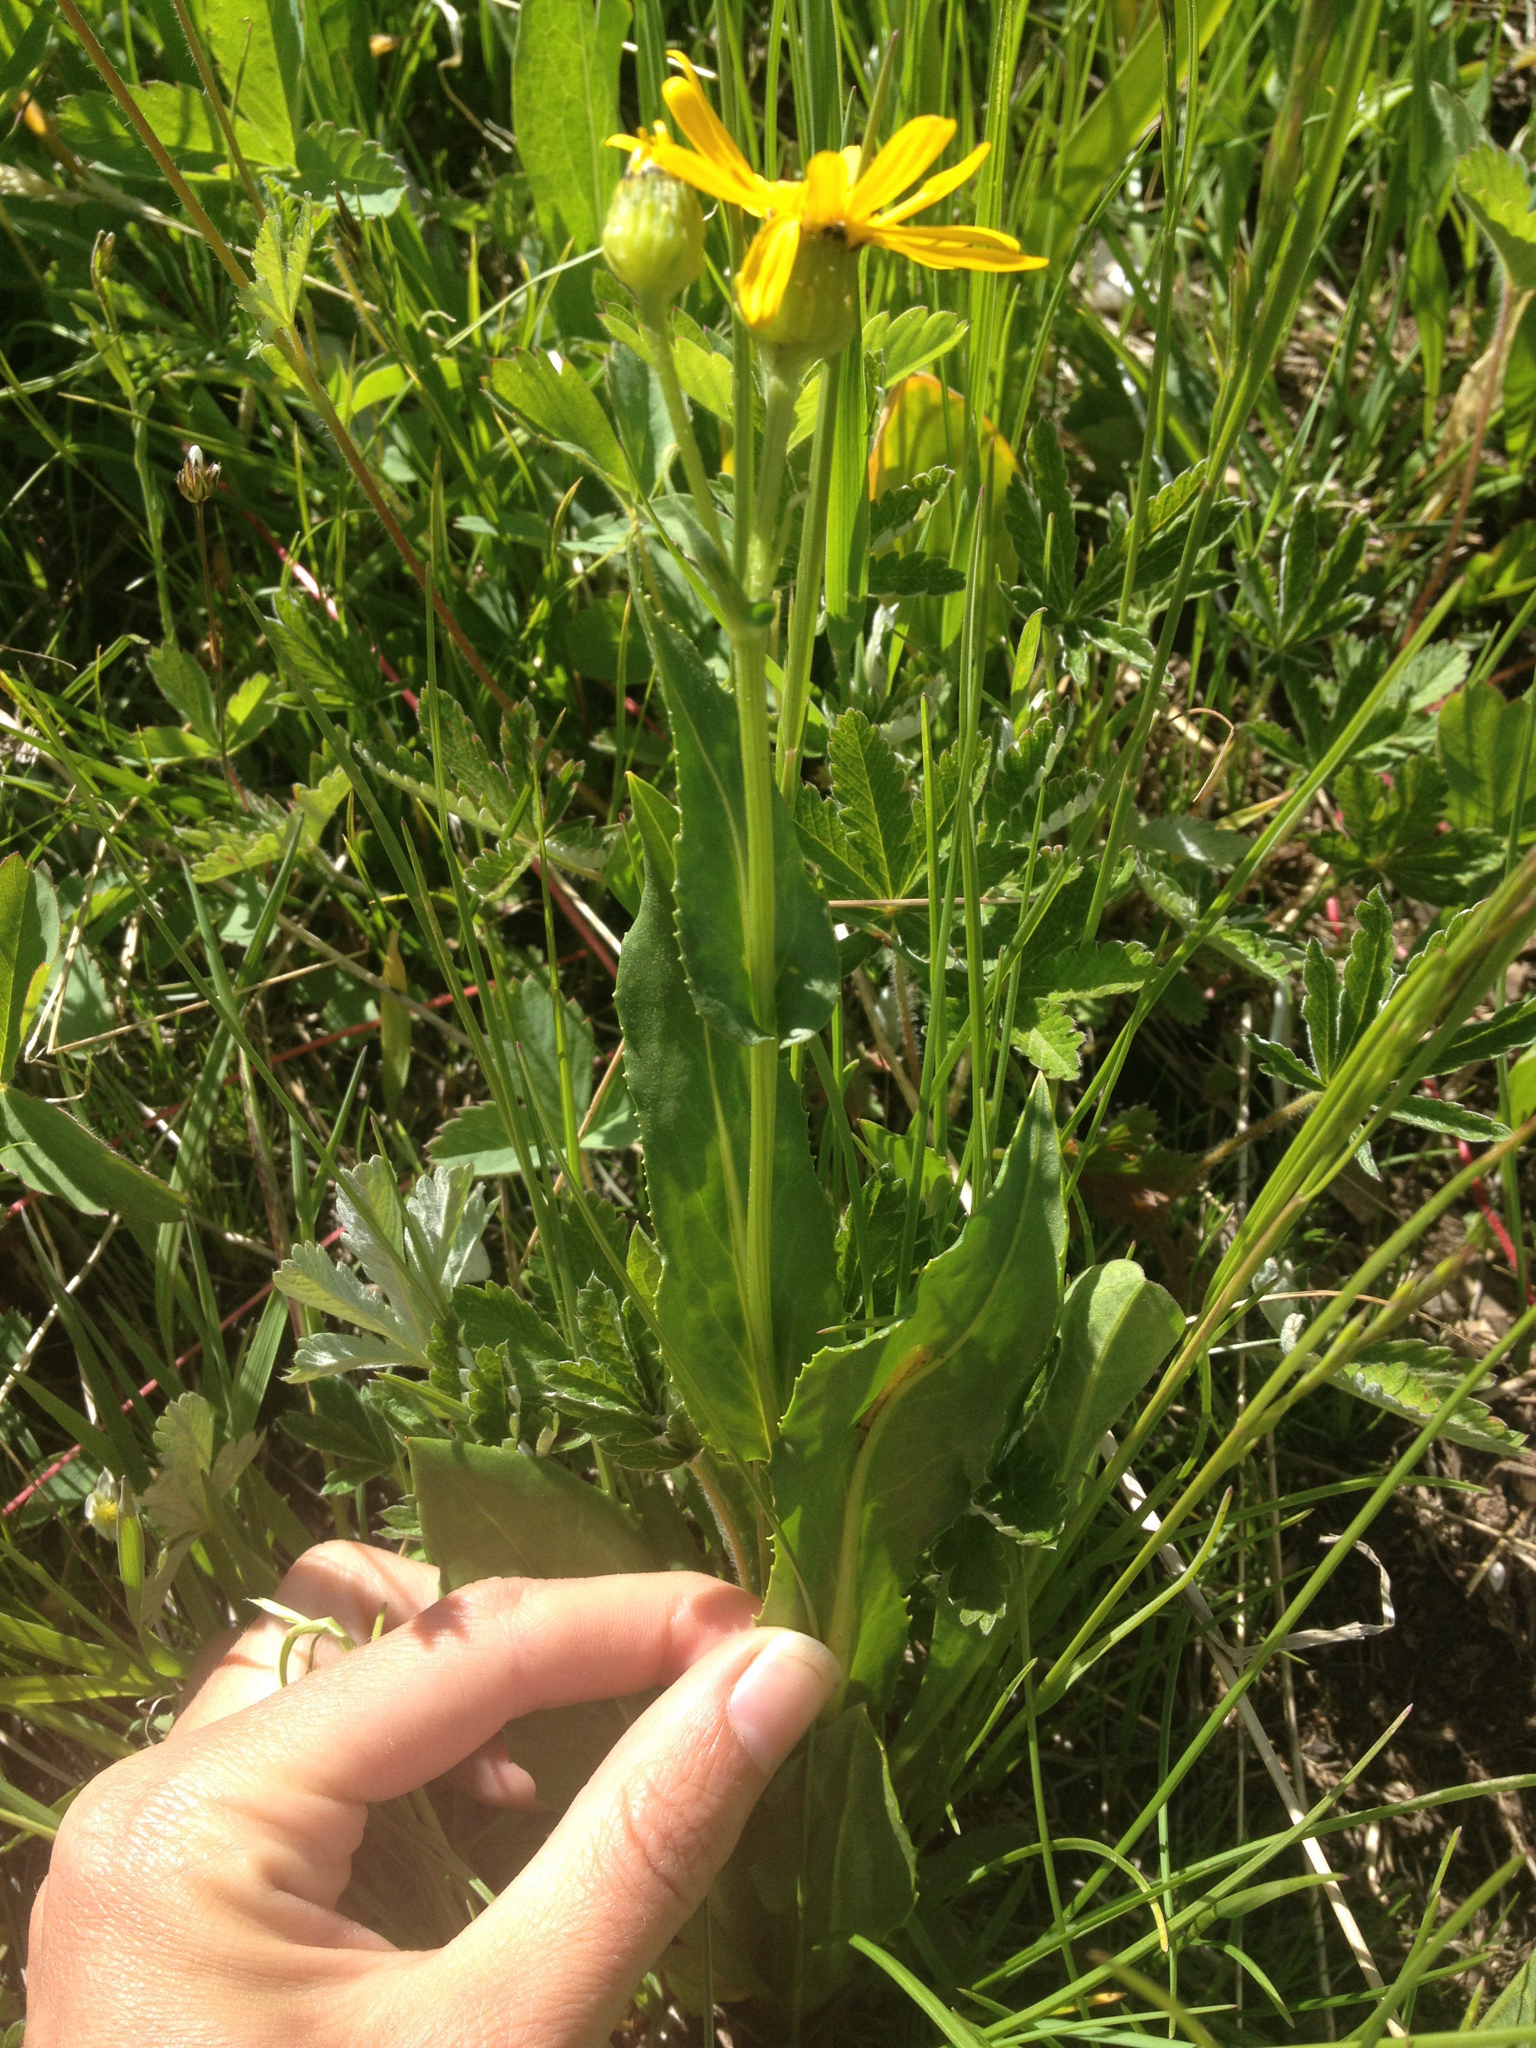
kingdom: Plantae
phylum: Tracheophyta
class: Magnoliopsida
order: Asterales
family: Asteraceae
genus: Senecio
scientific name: Senecio crassulus
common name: Mountain-meadow butterweed
